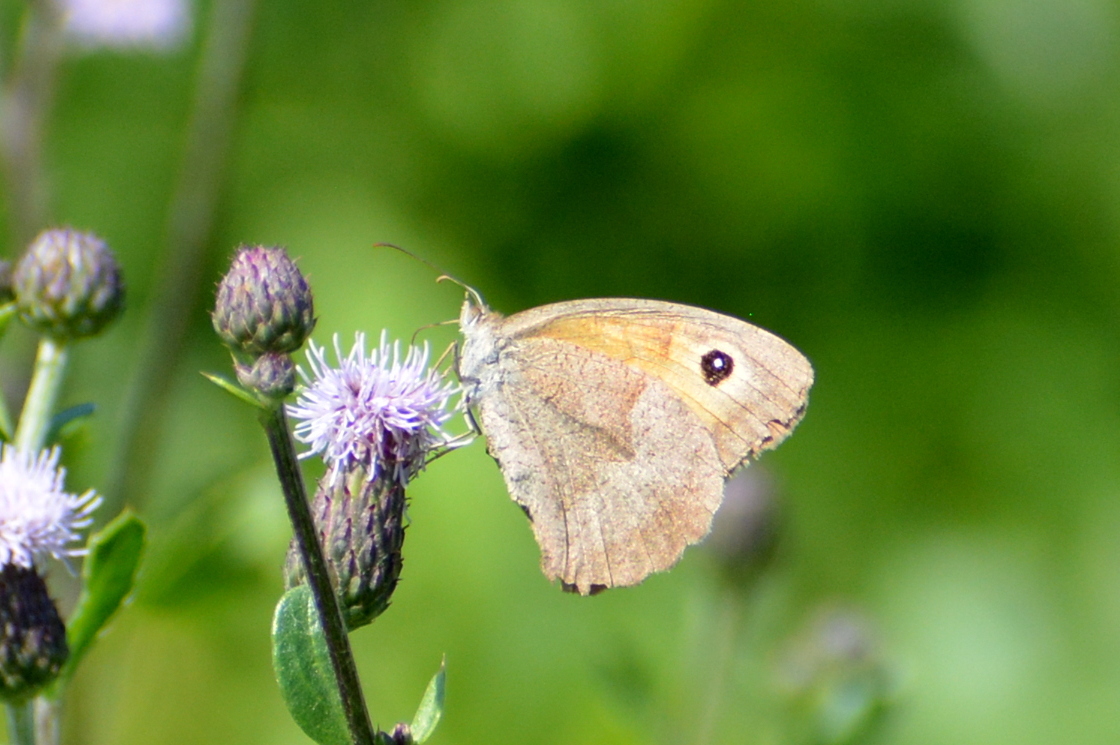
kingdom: Animalia
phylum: Arthropoda
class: Insecta
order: Lepidoptera
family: Nymphalidae
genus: Maniola
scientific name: Maniola jurtina
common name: Meadow brown
